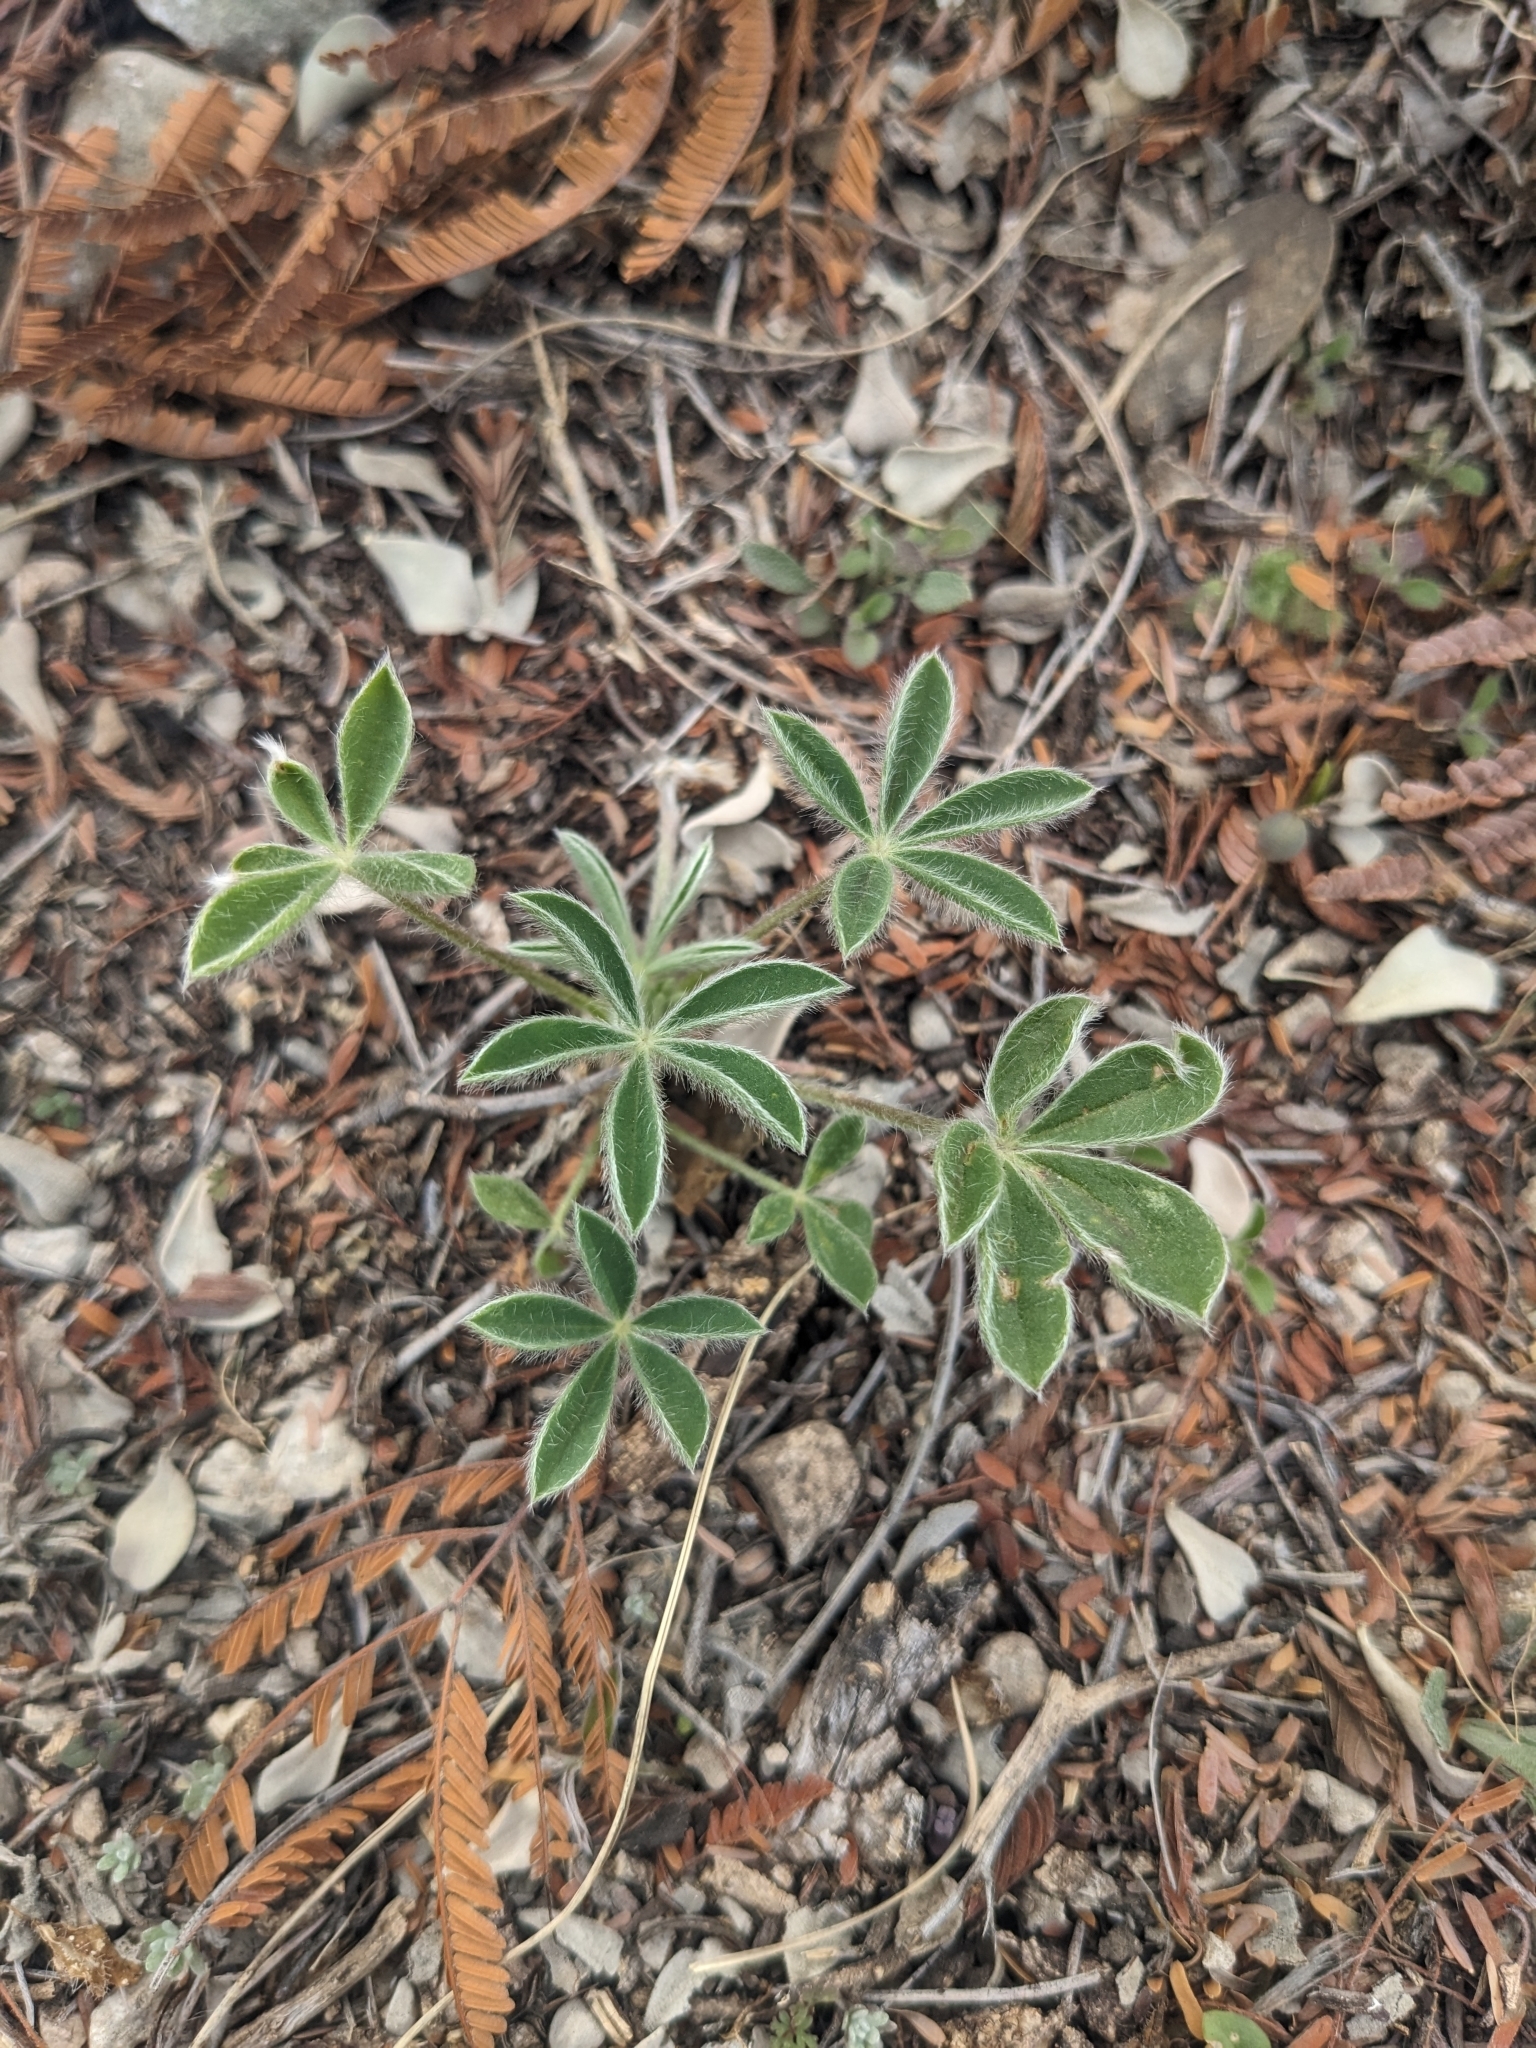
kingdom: Plantae
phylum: Tracheophyta
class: Magnoliopsida
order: Fabales
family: Fabaceae
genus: Lupinus
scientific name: Lupinus texensis
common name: Texas bluebonnet
